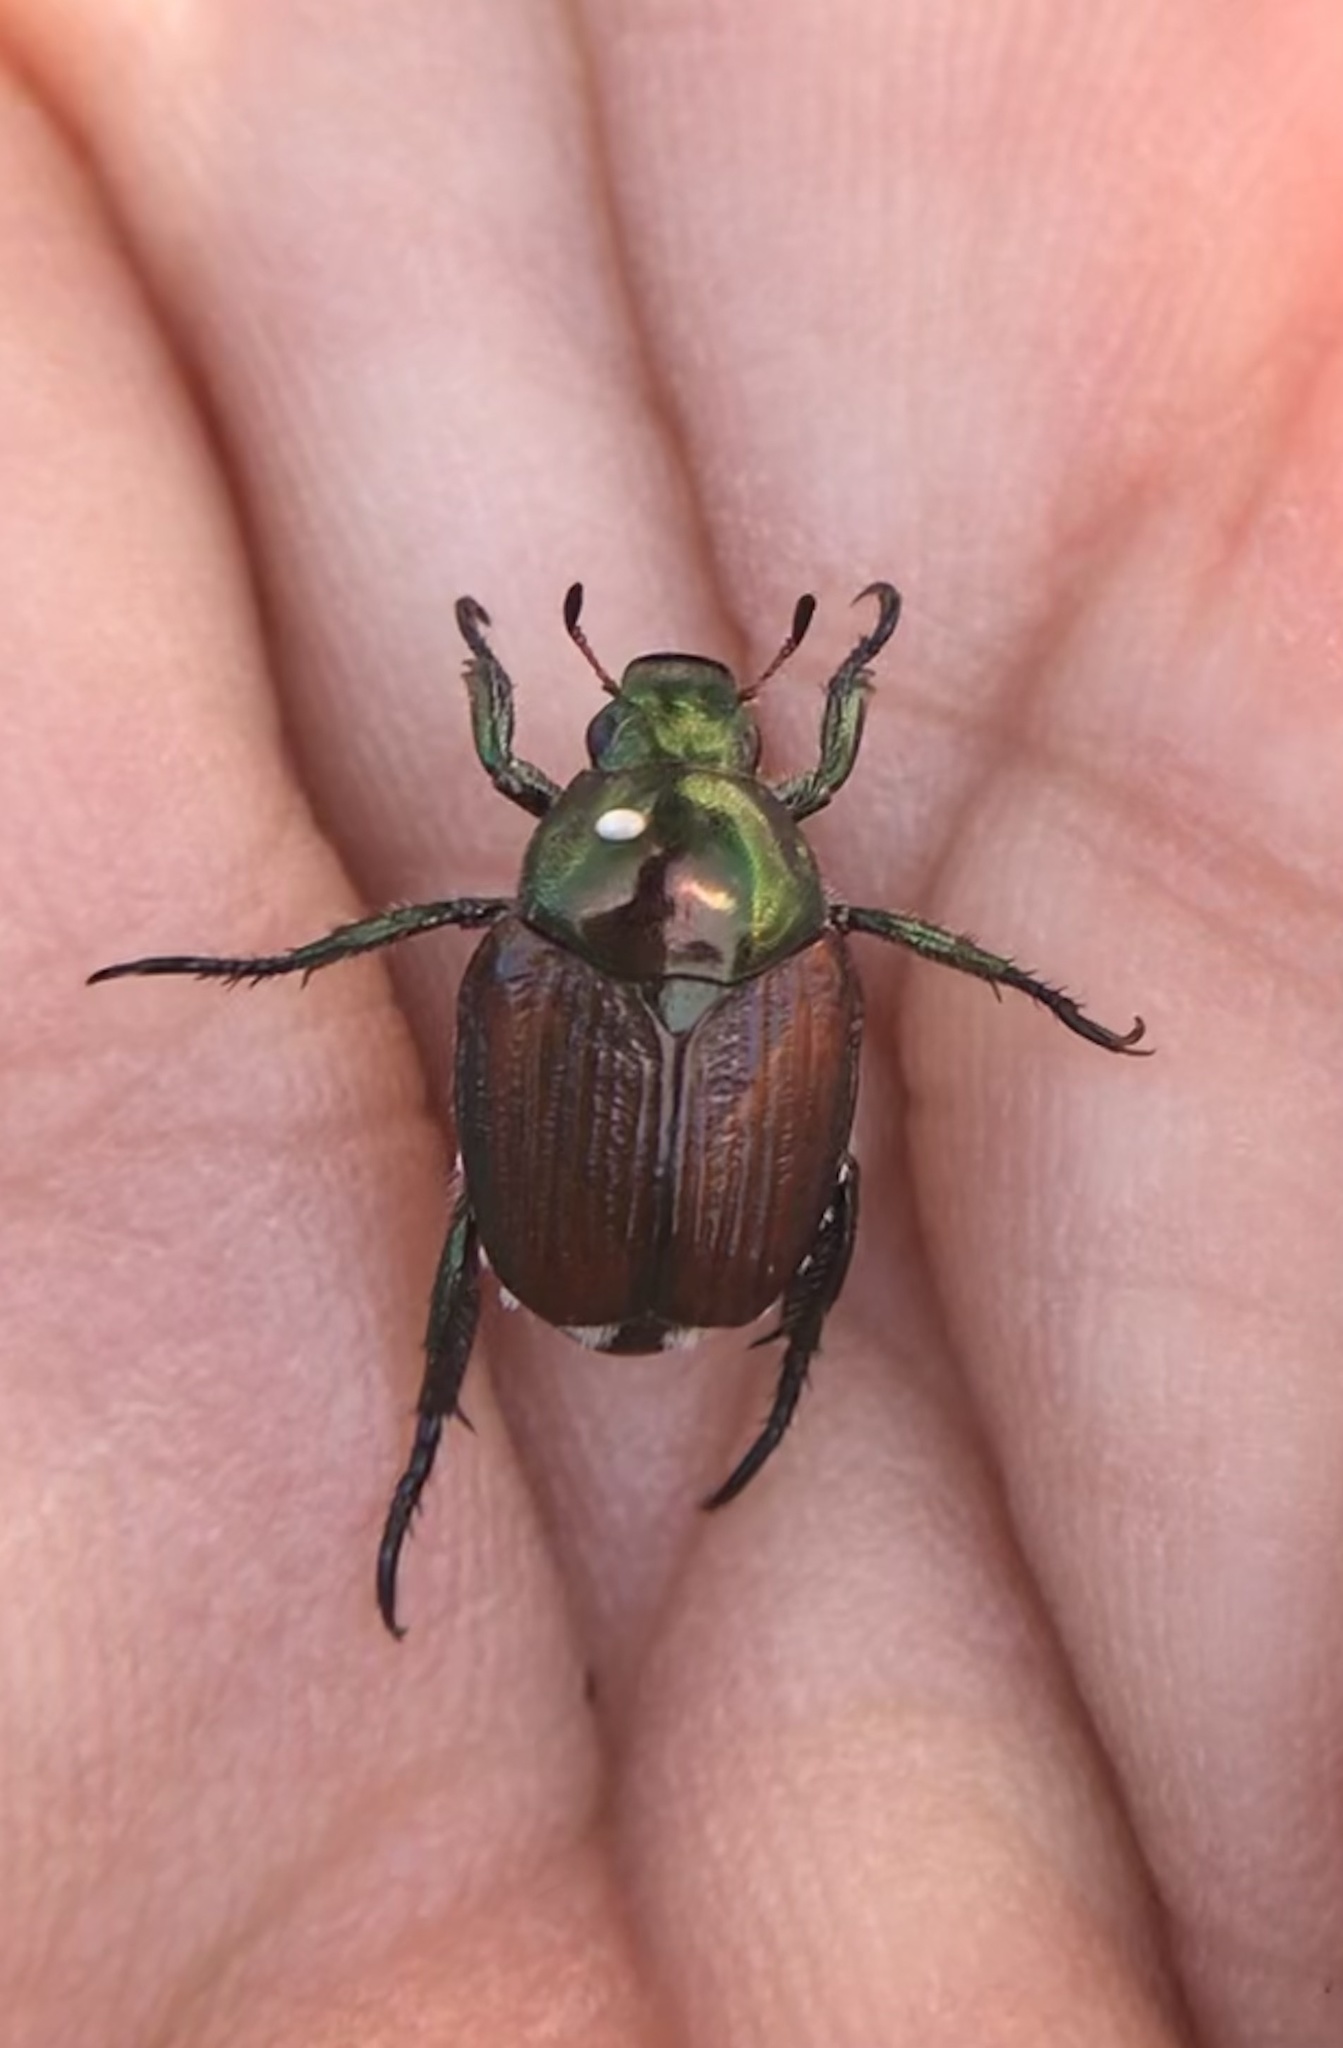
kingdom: Animalia
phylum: Arthropoda
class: Insecta
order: Coleoptera
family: Scarabaeidae
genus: Popillia
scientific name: Popillia japonica
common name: Japanese beetle
